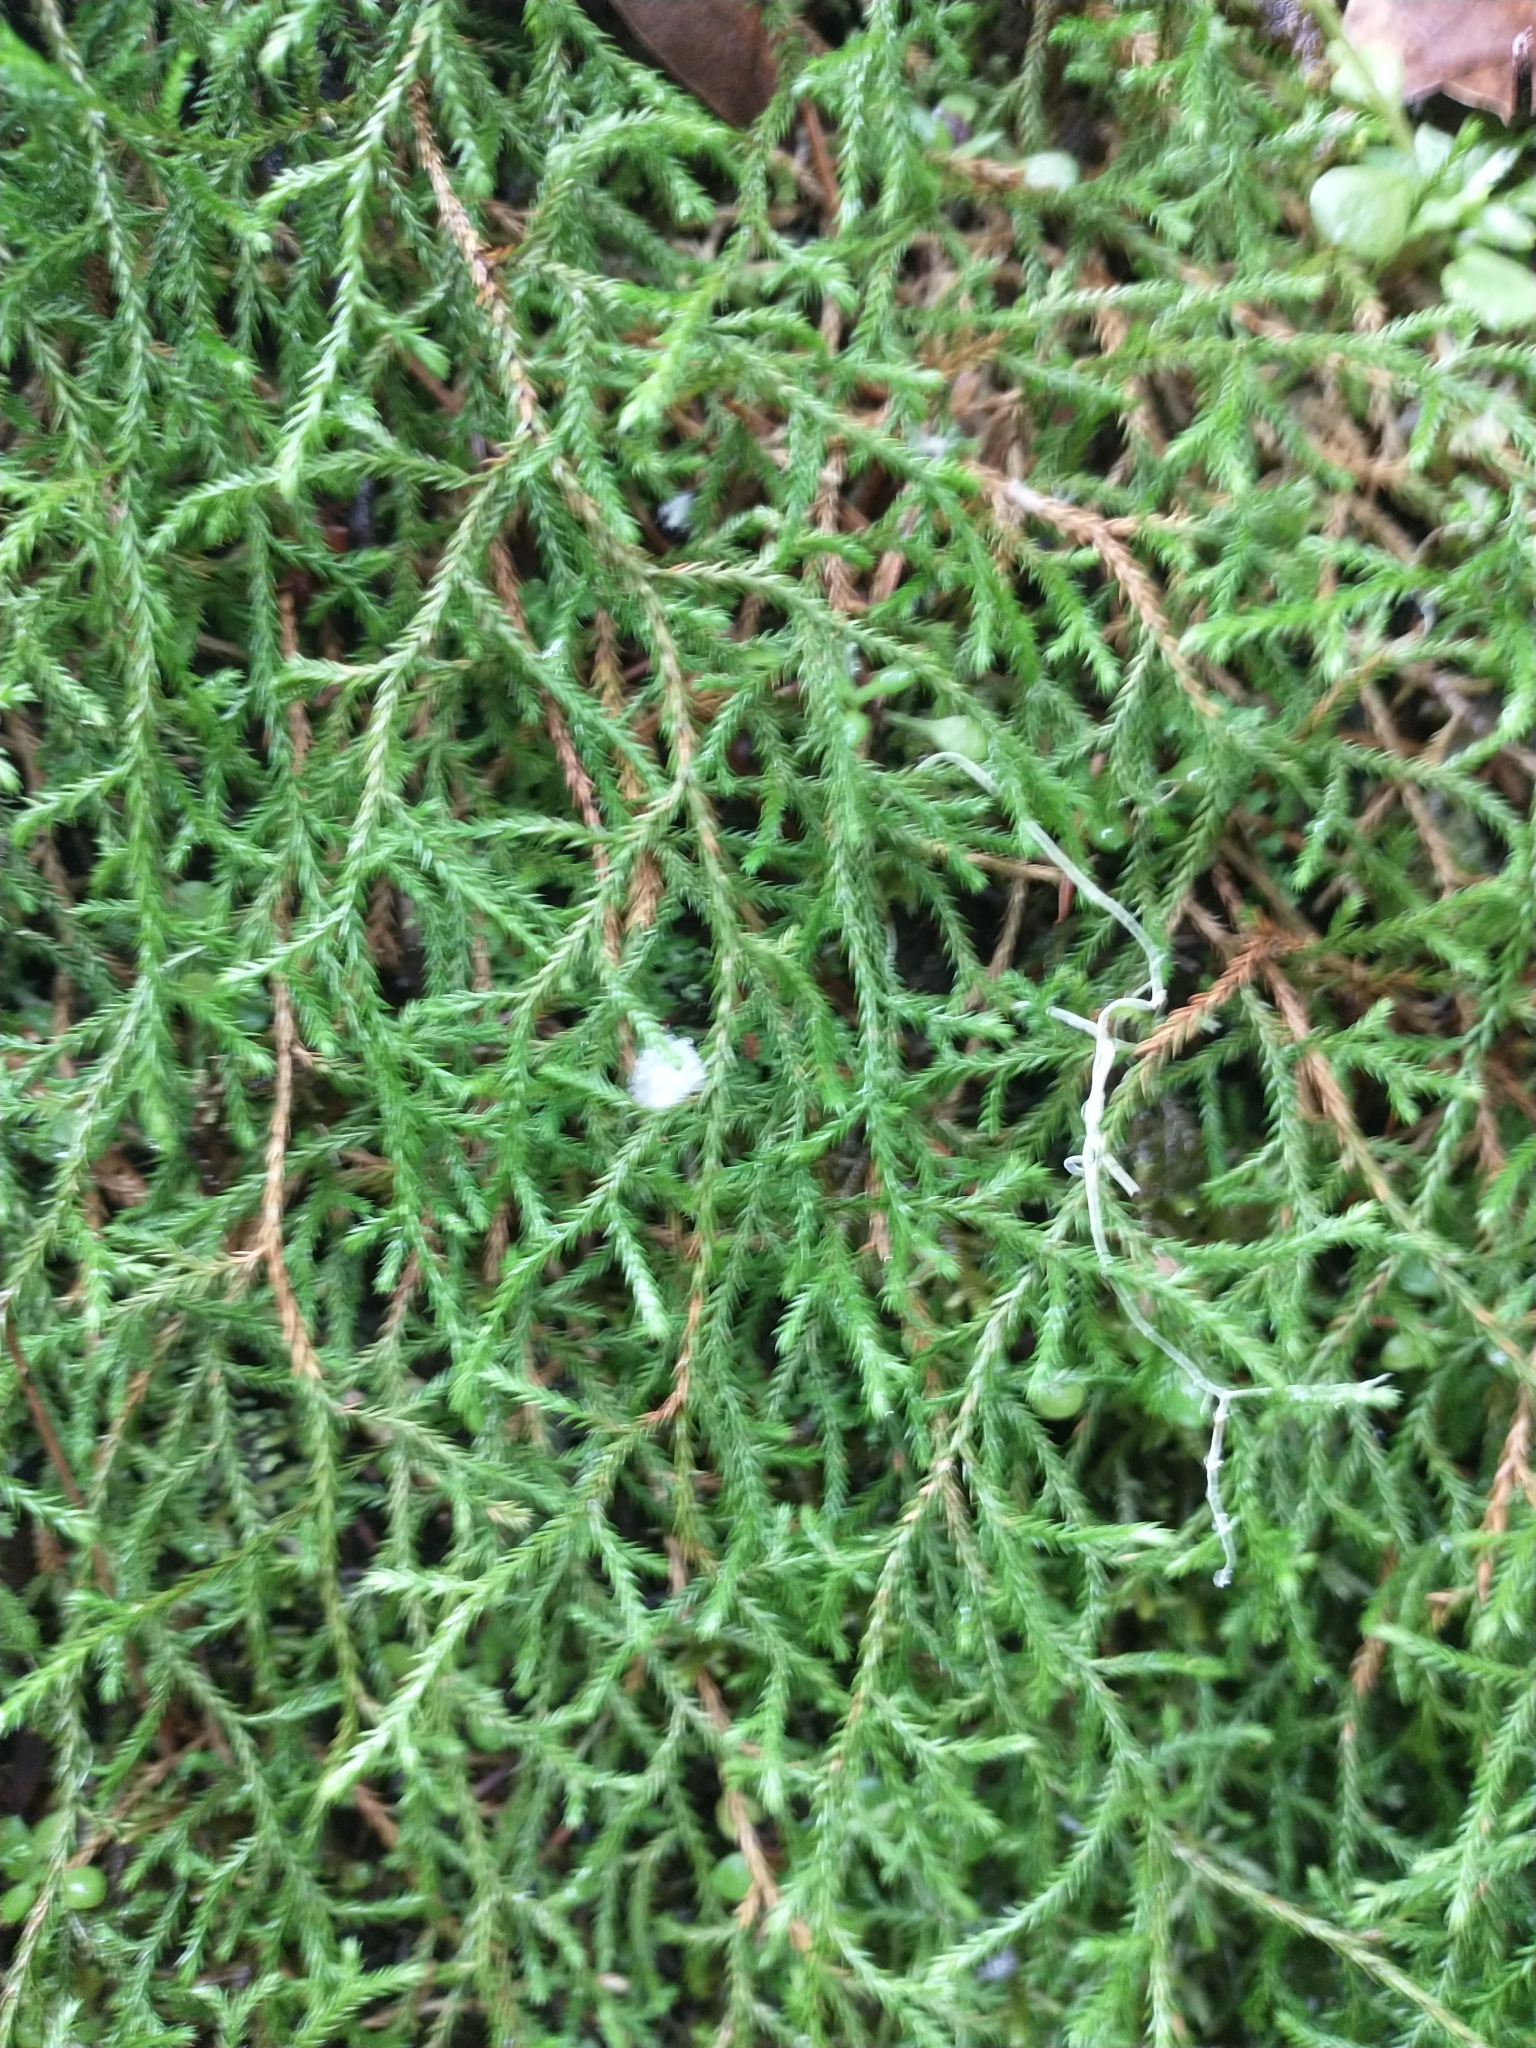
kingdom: Plantae
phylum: Tracheophyta
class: Lycopodiopsida
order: Selaginellales
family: Selaginellaceae
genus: Selaginella
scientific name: Selaginella oregana
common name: Oregon selaginella
